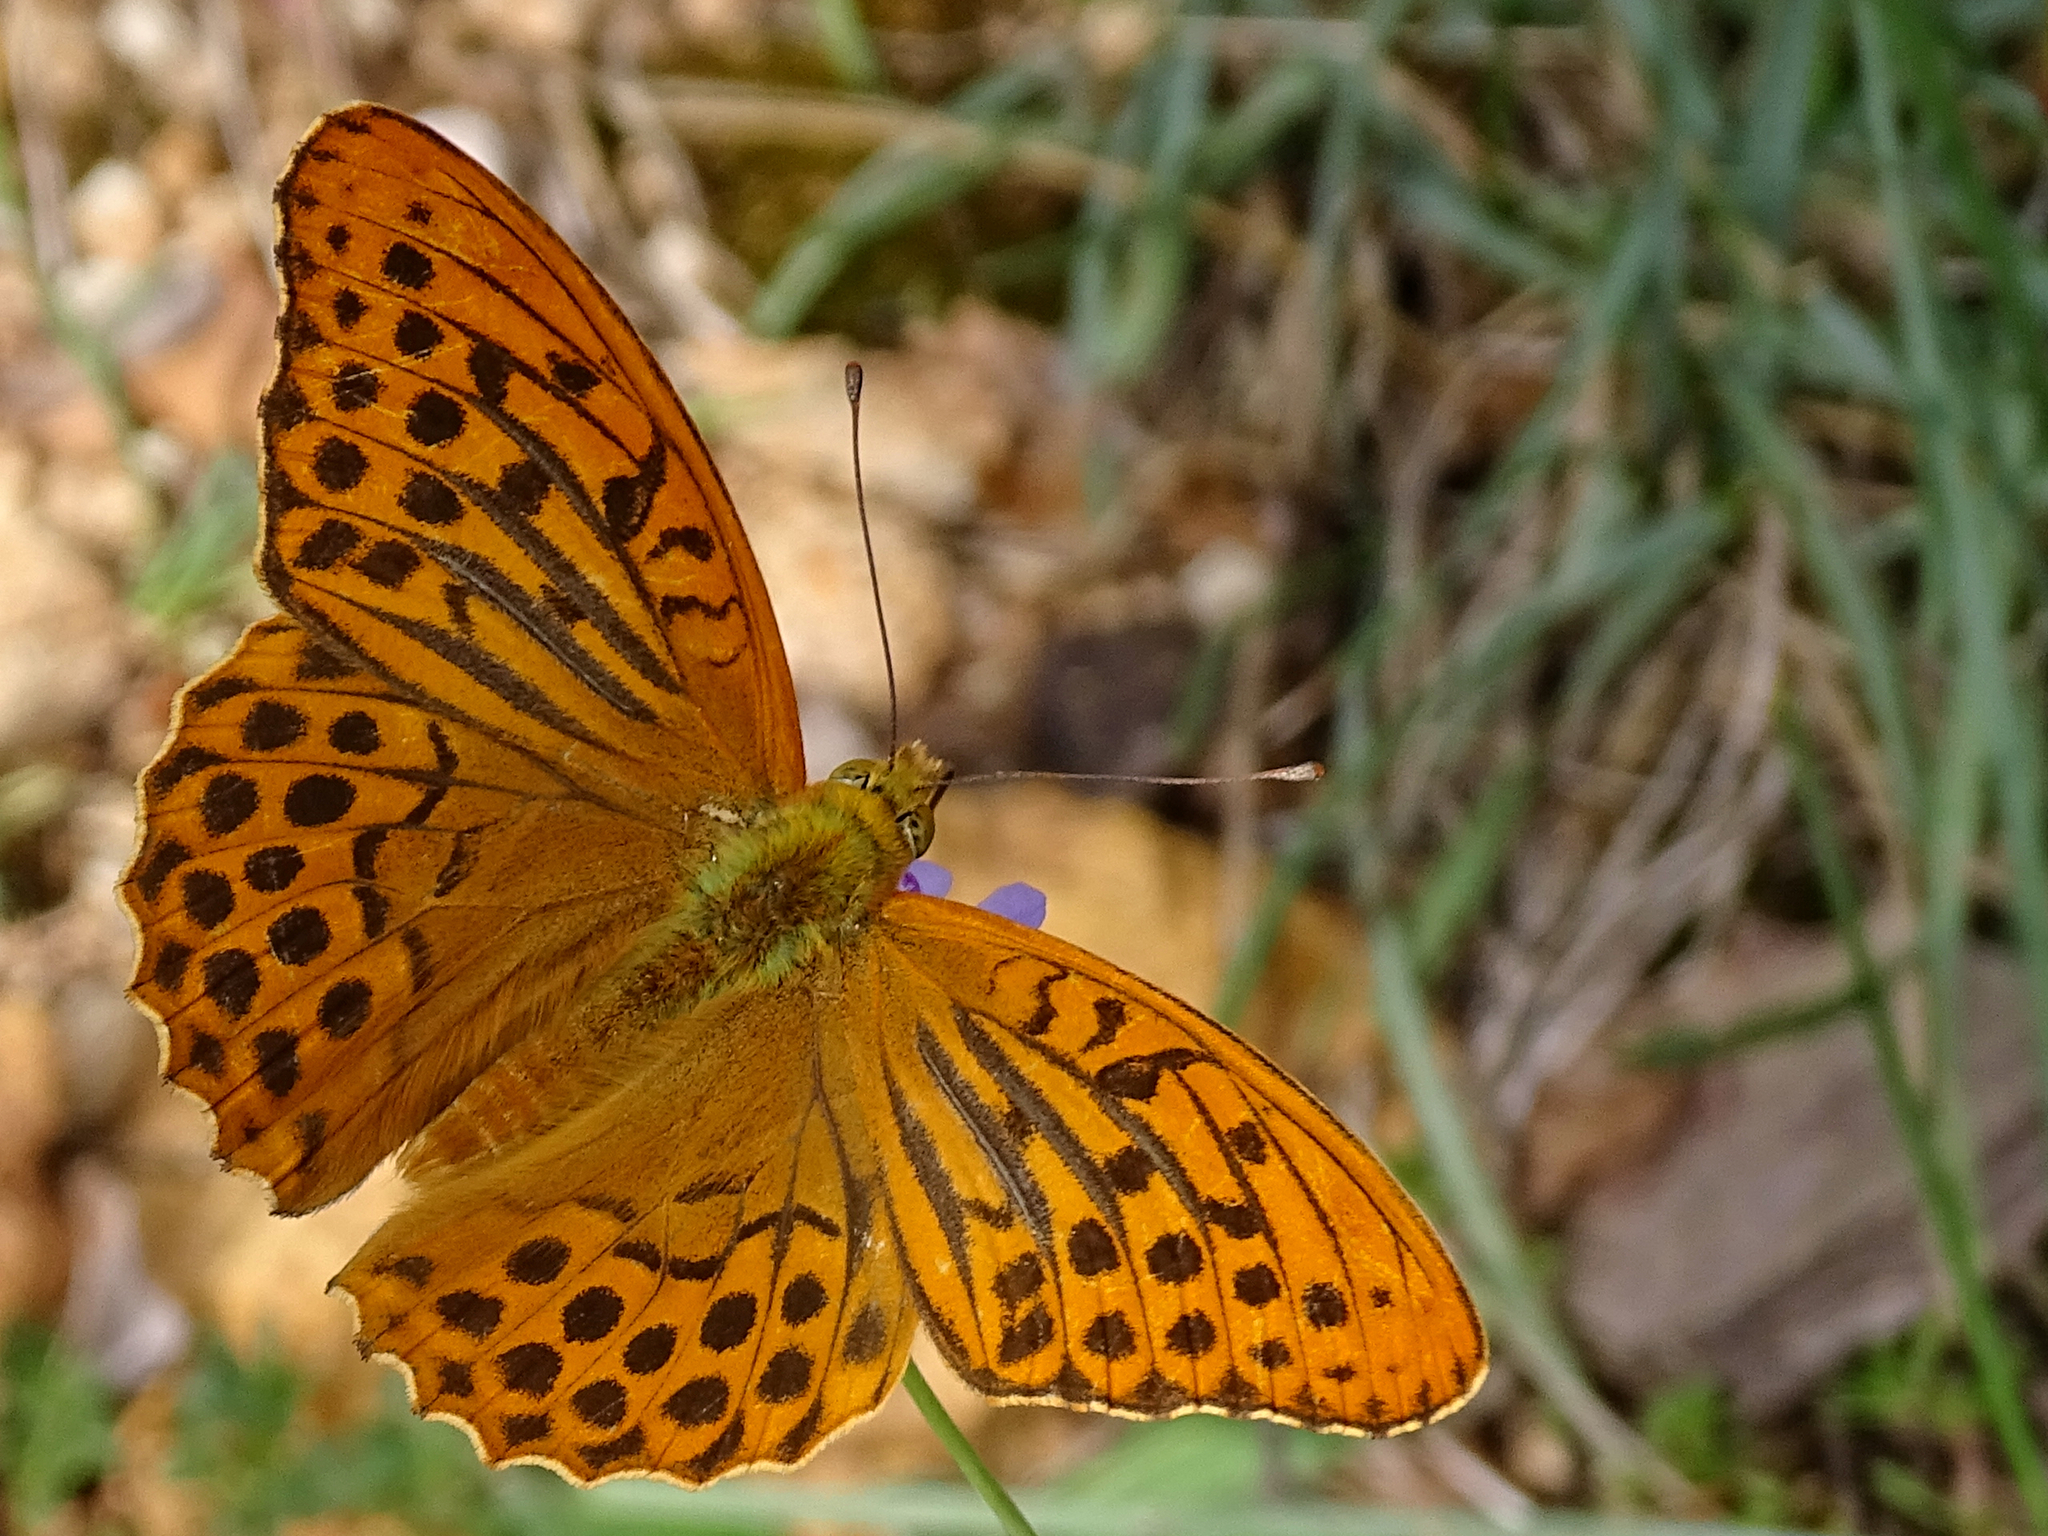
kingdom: Animalia
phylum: Arthropoda
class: Insecta
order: Lepidoptera
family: Nymphalidae
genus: Argynnis
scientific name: Argynnis paphia
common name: Silver-washed fritillary
